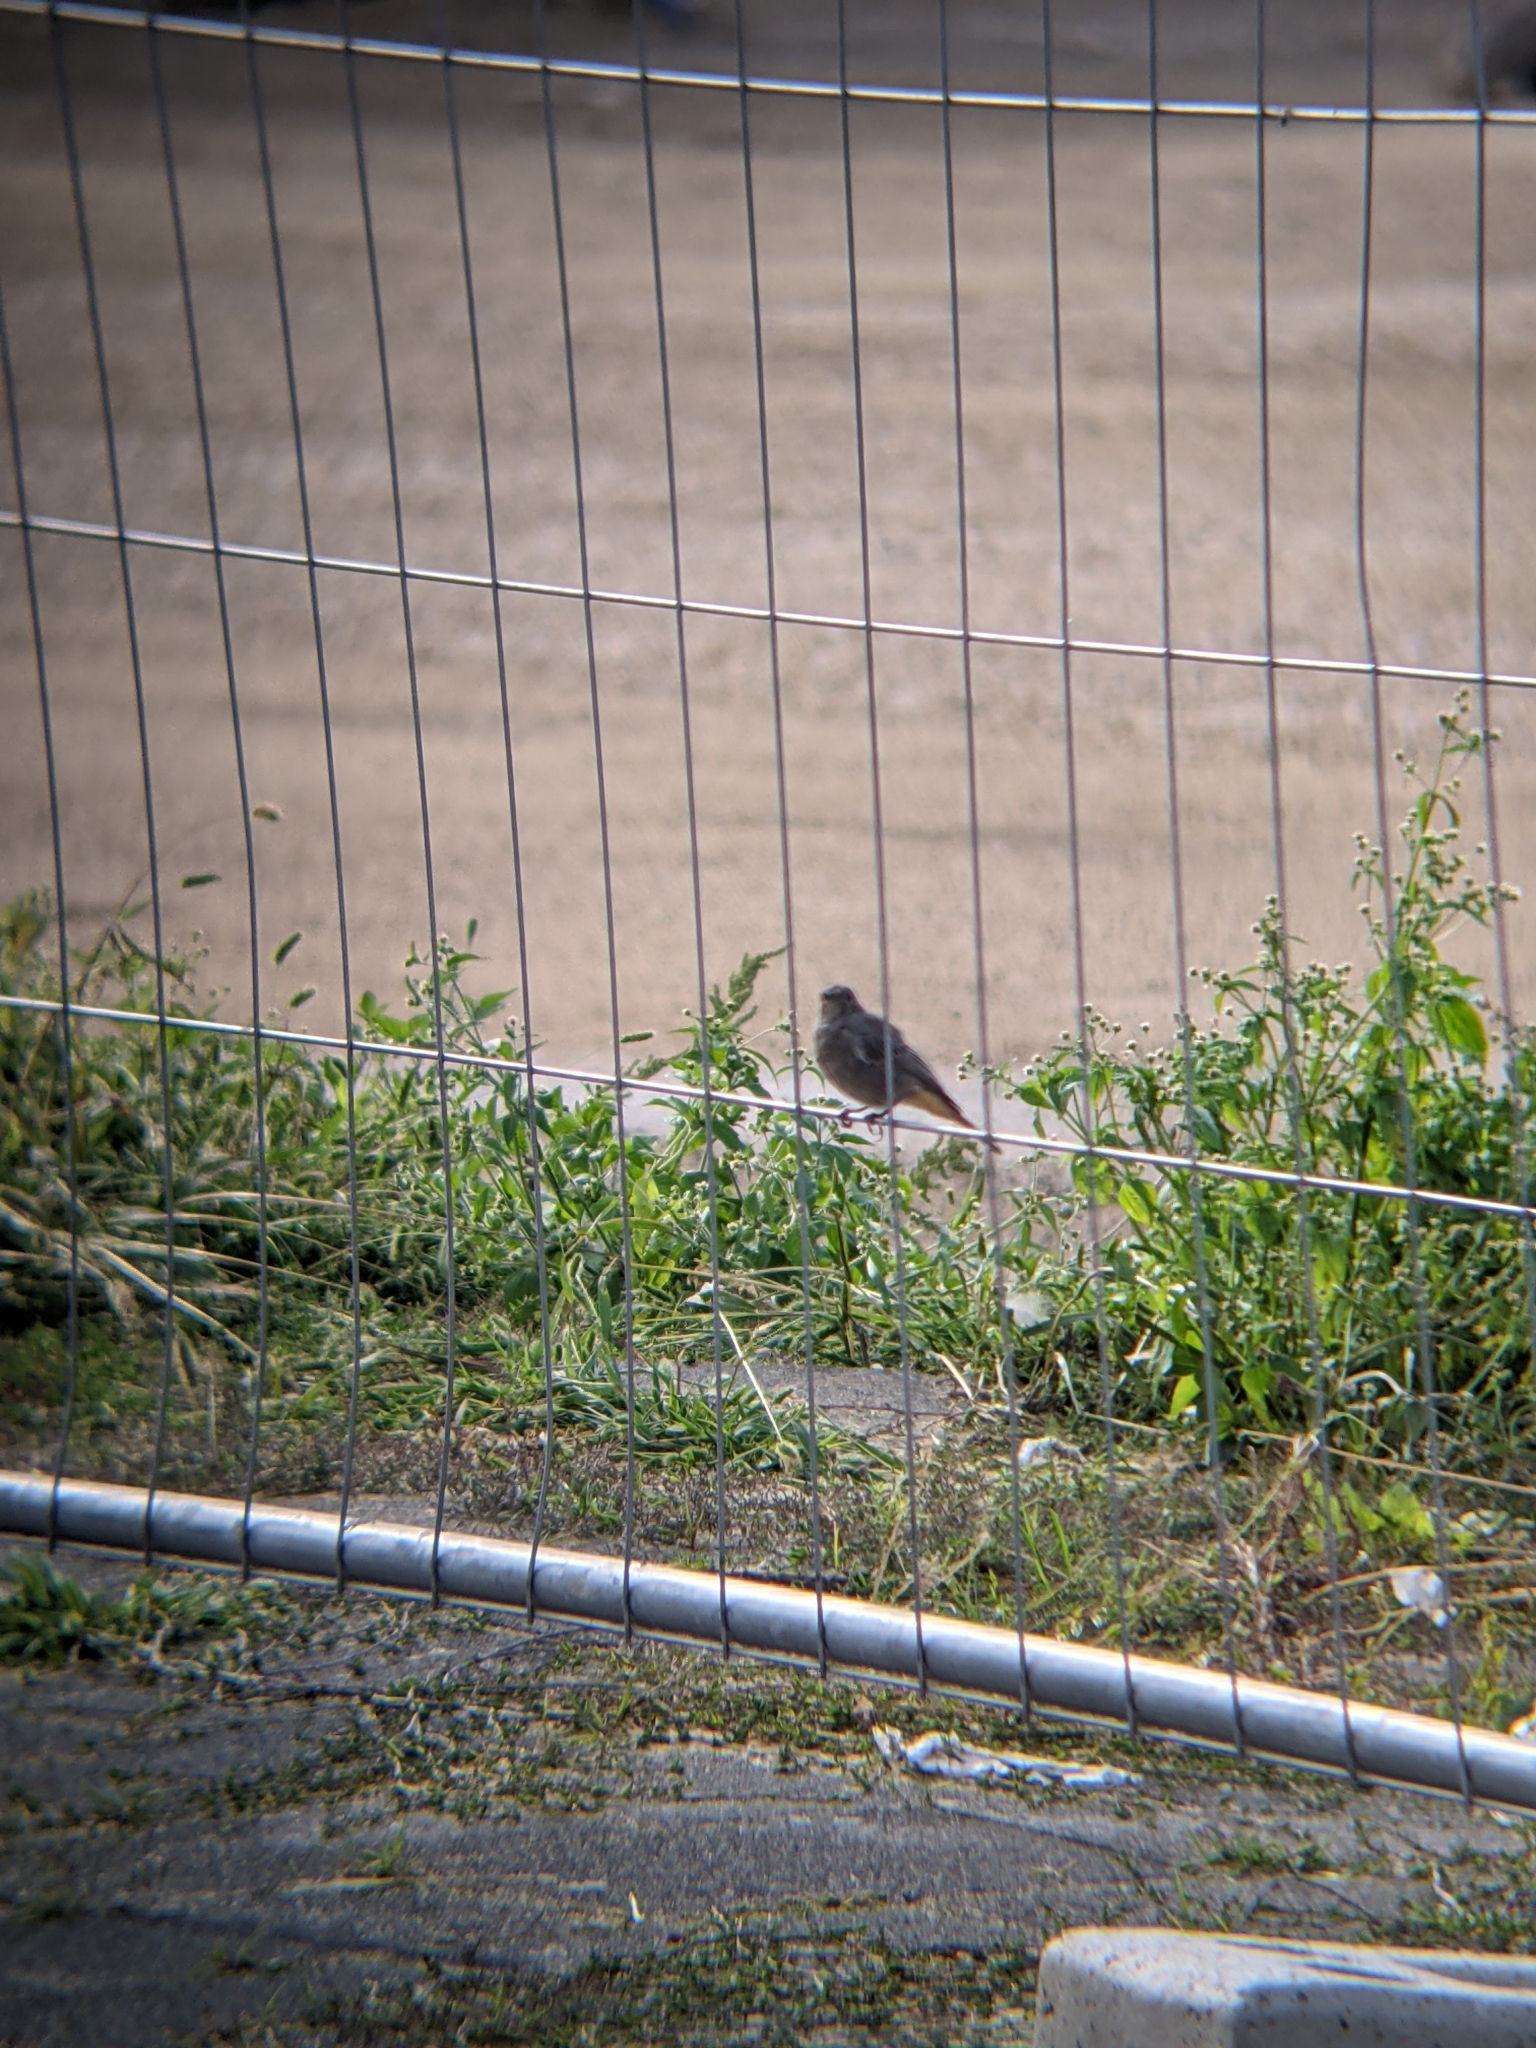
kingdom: Animalia
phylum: Chordata
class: Aves
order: Passeriformes
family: Muscicapidae
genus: Phoenicurus
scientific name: Phoenicurus ochruros
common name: Black redstart
